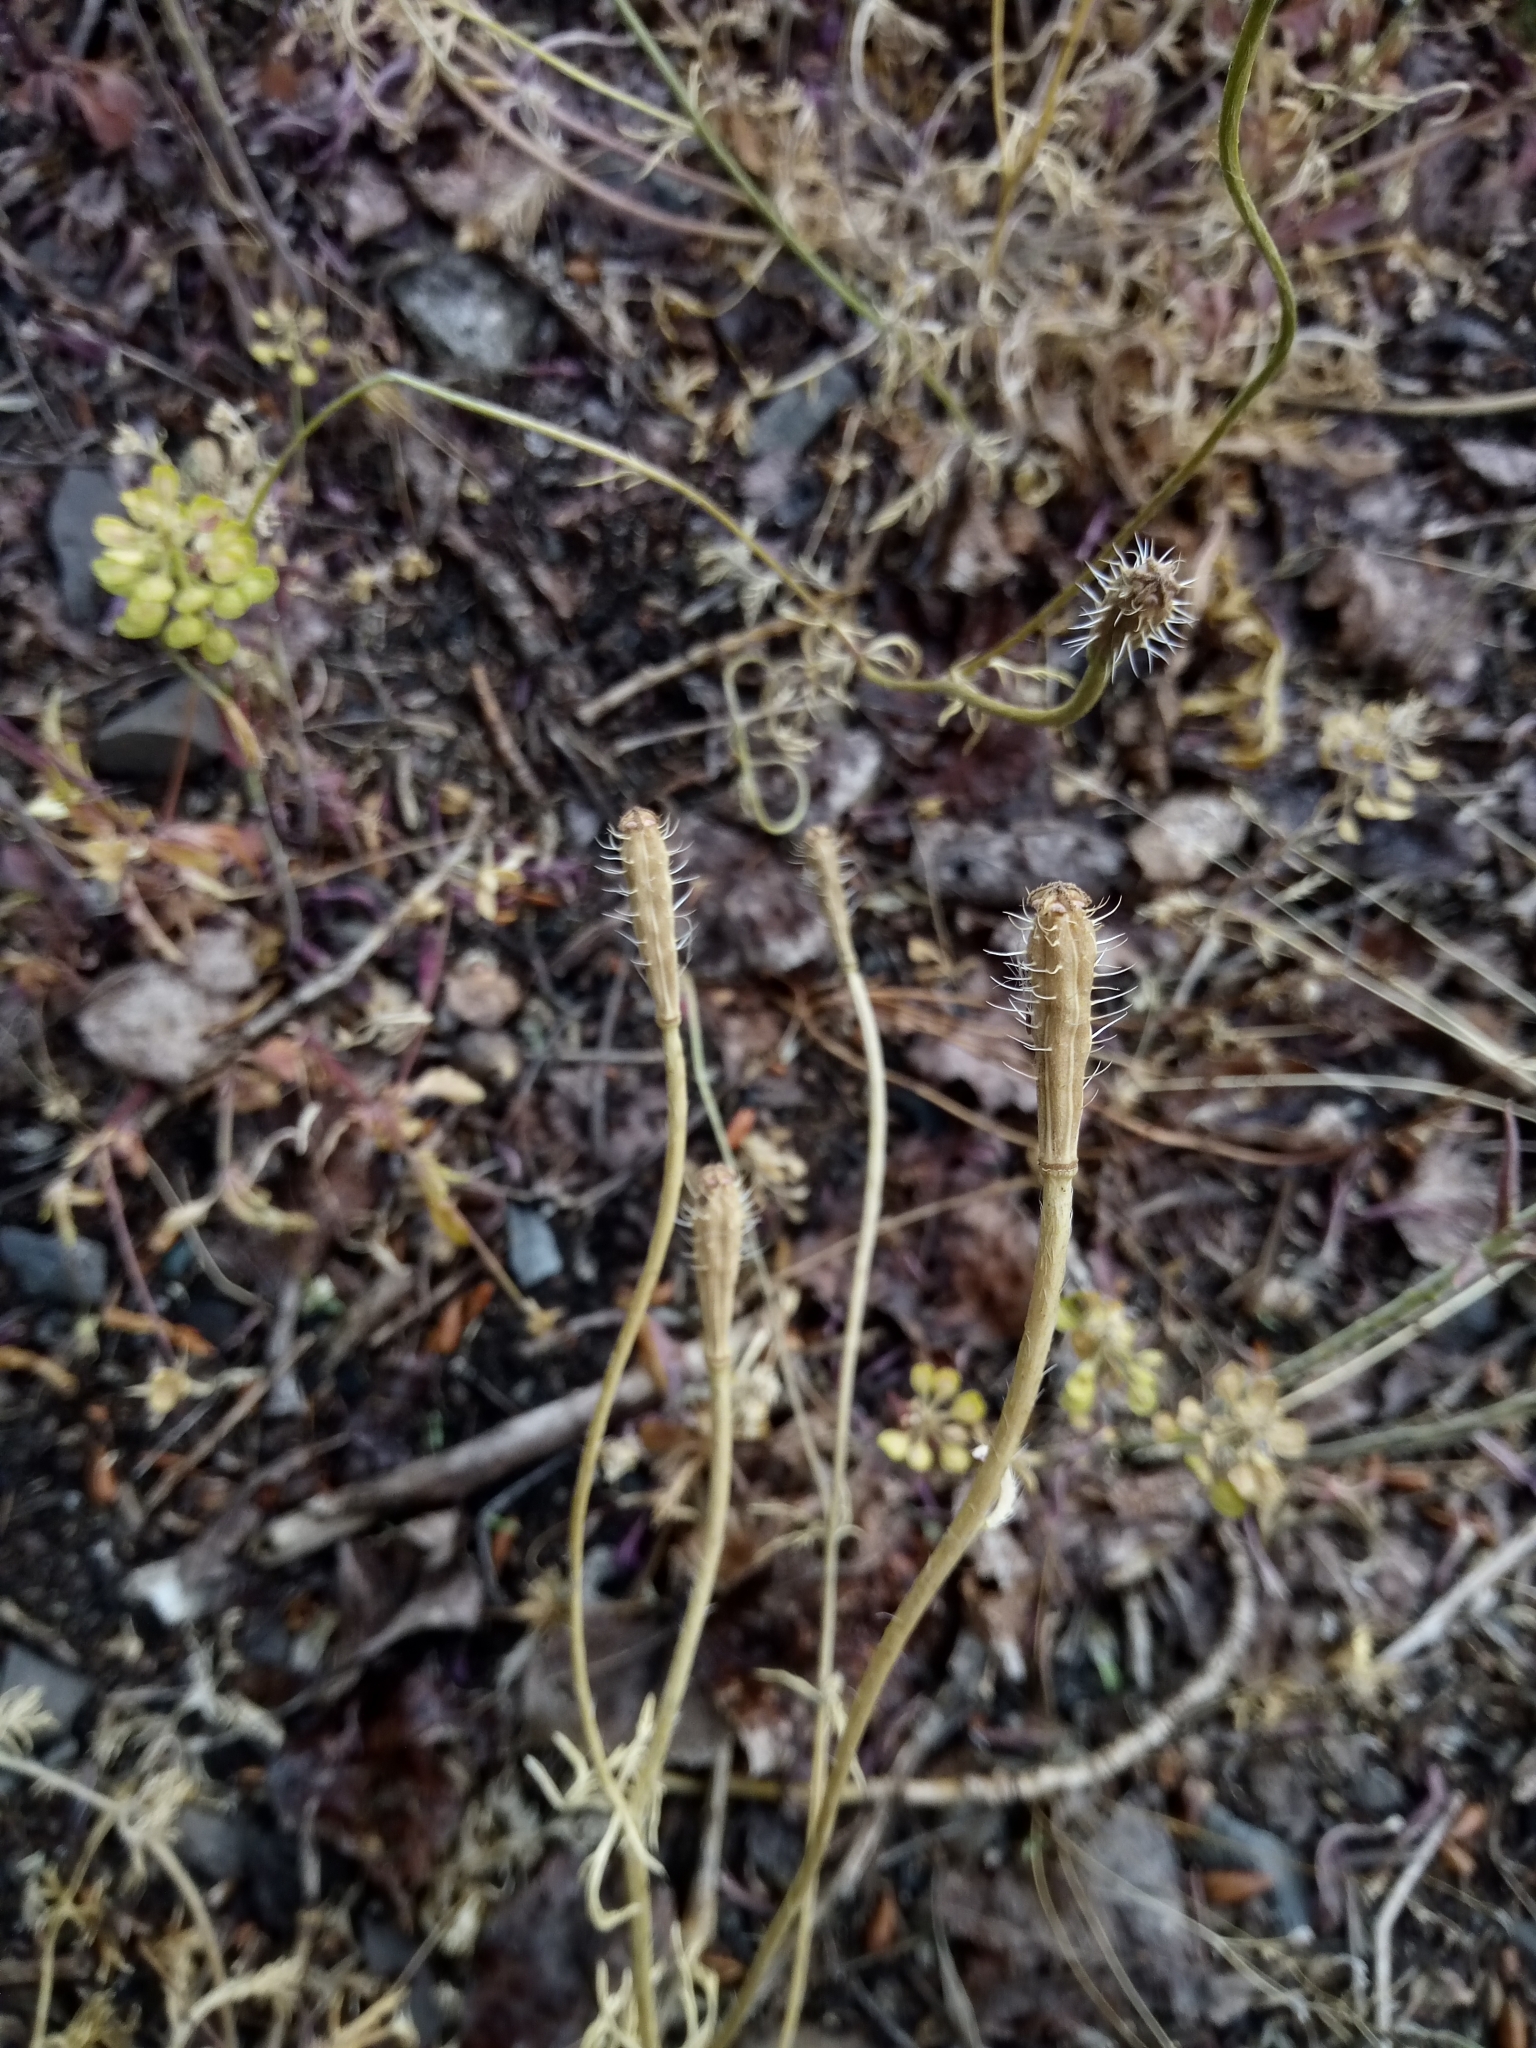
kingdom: Plantae
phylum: Tracheophyta
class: Magnoliopsida
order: Ranunculales
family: Papaveraceae
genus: Roemeria
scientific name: Roemeria argemone
